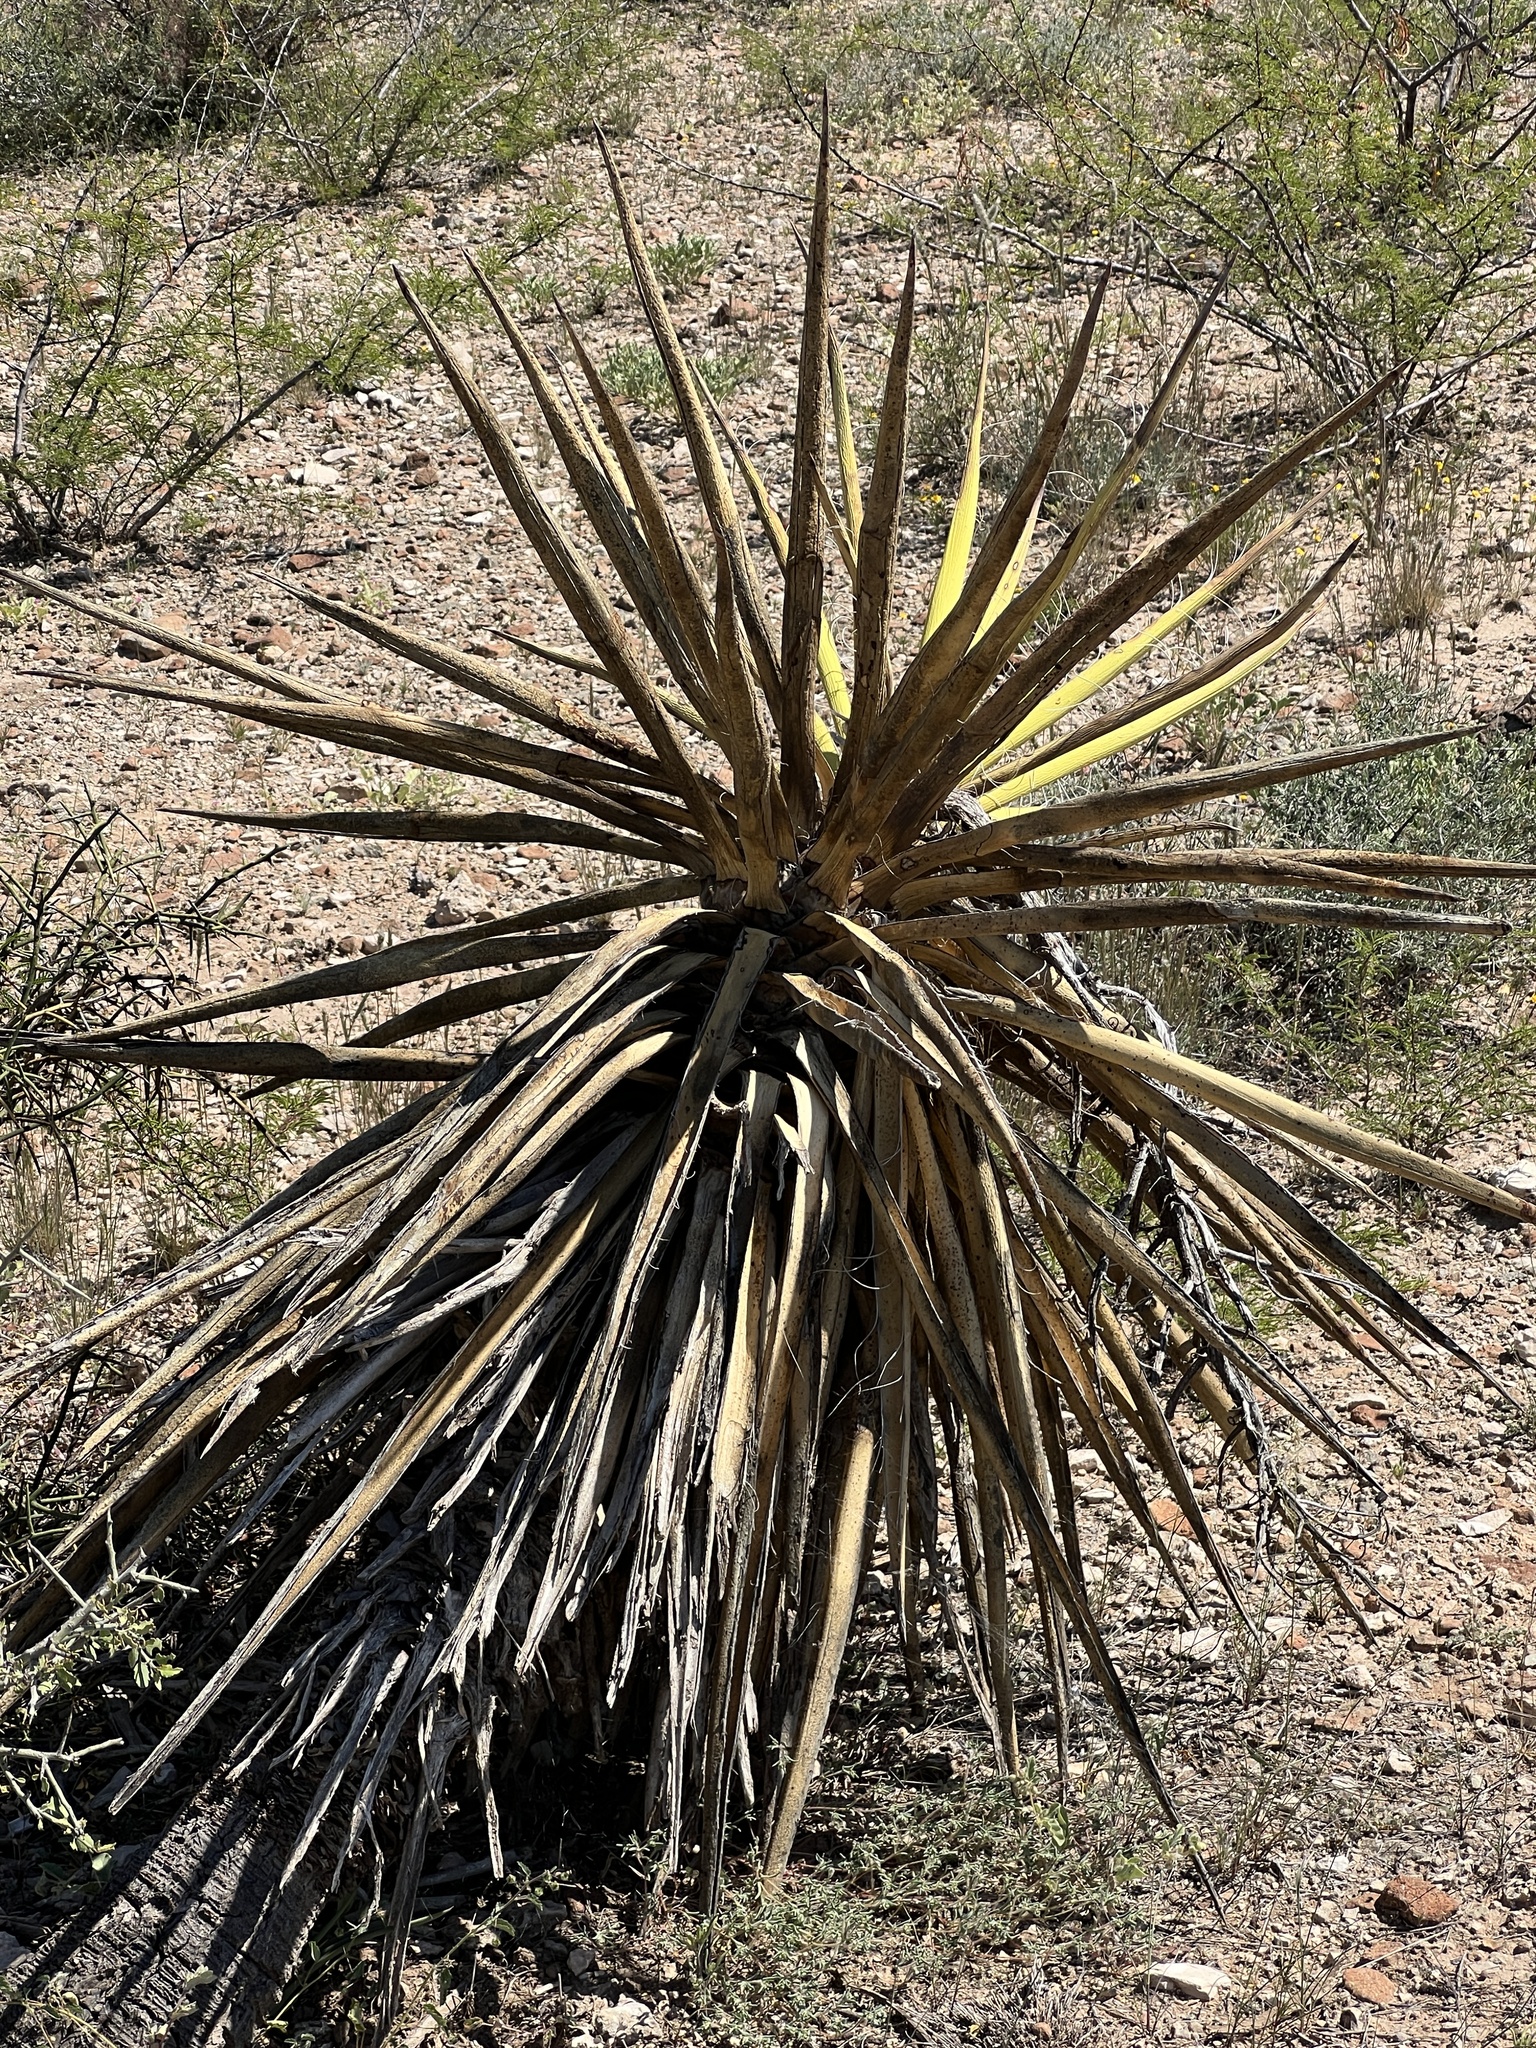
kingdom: Plantae
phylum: Tracheophyta
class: Liliopsida
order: Asparagales
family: Asparagaceae
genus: Yucca
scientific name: Yucca treculiana
